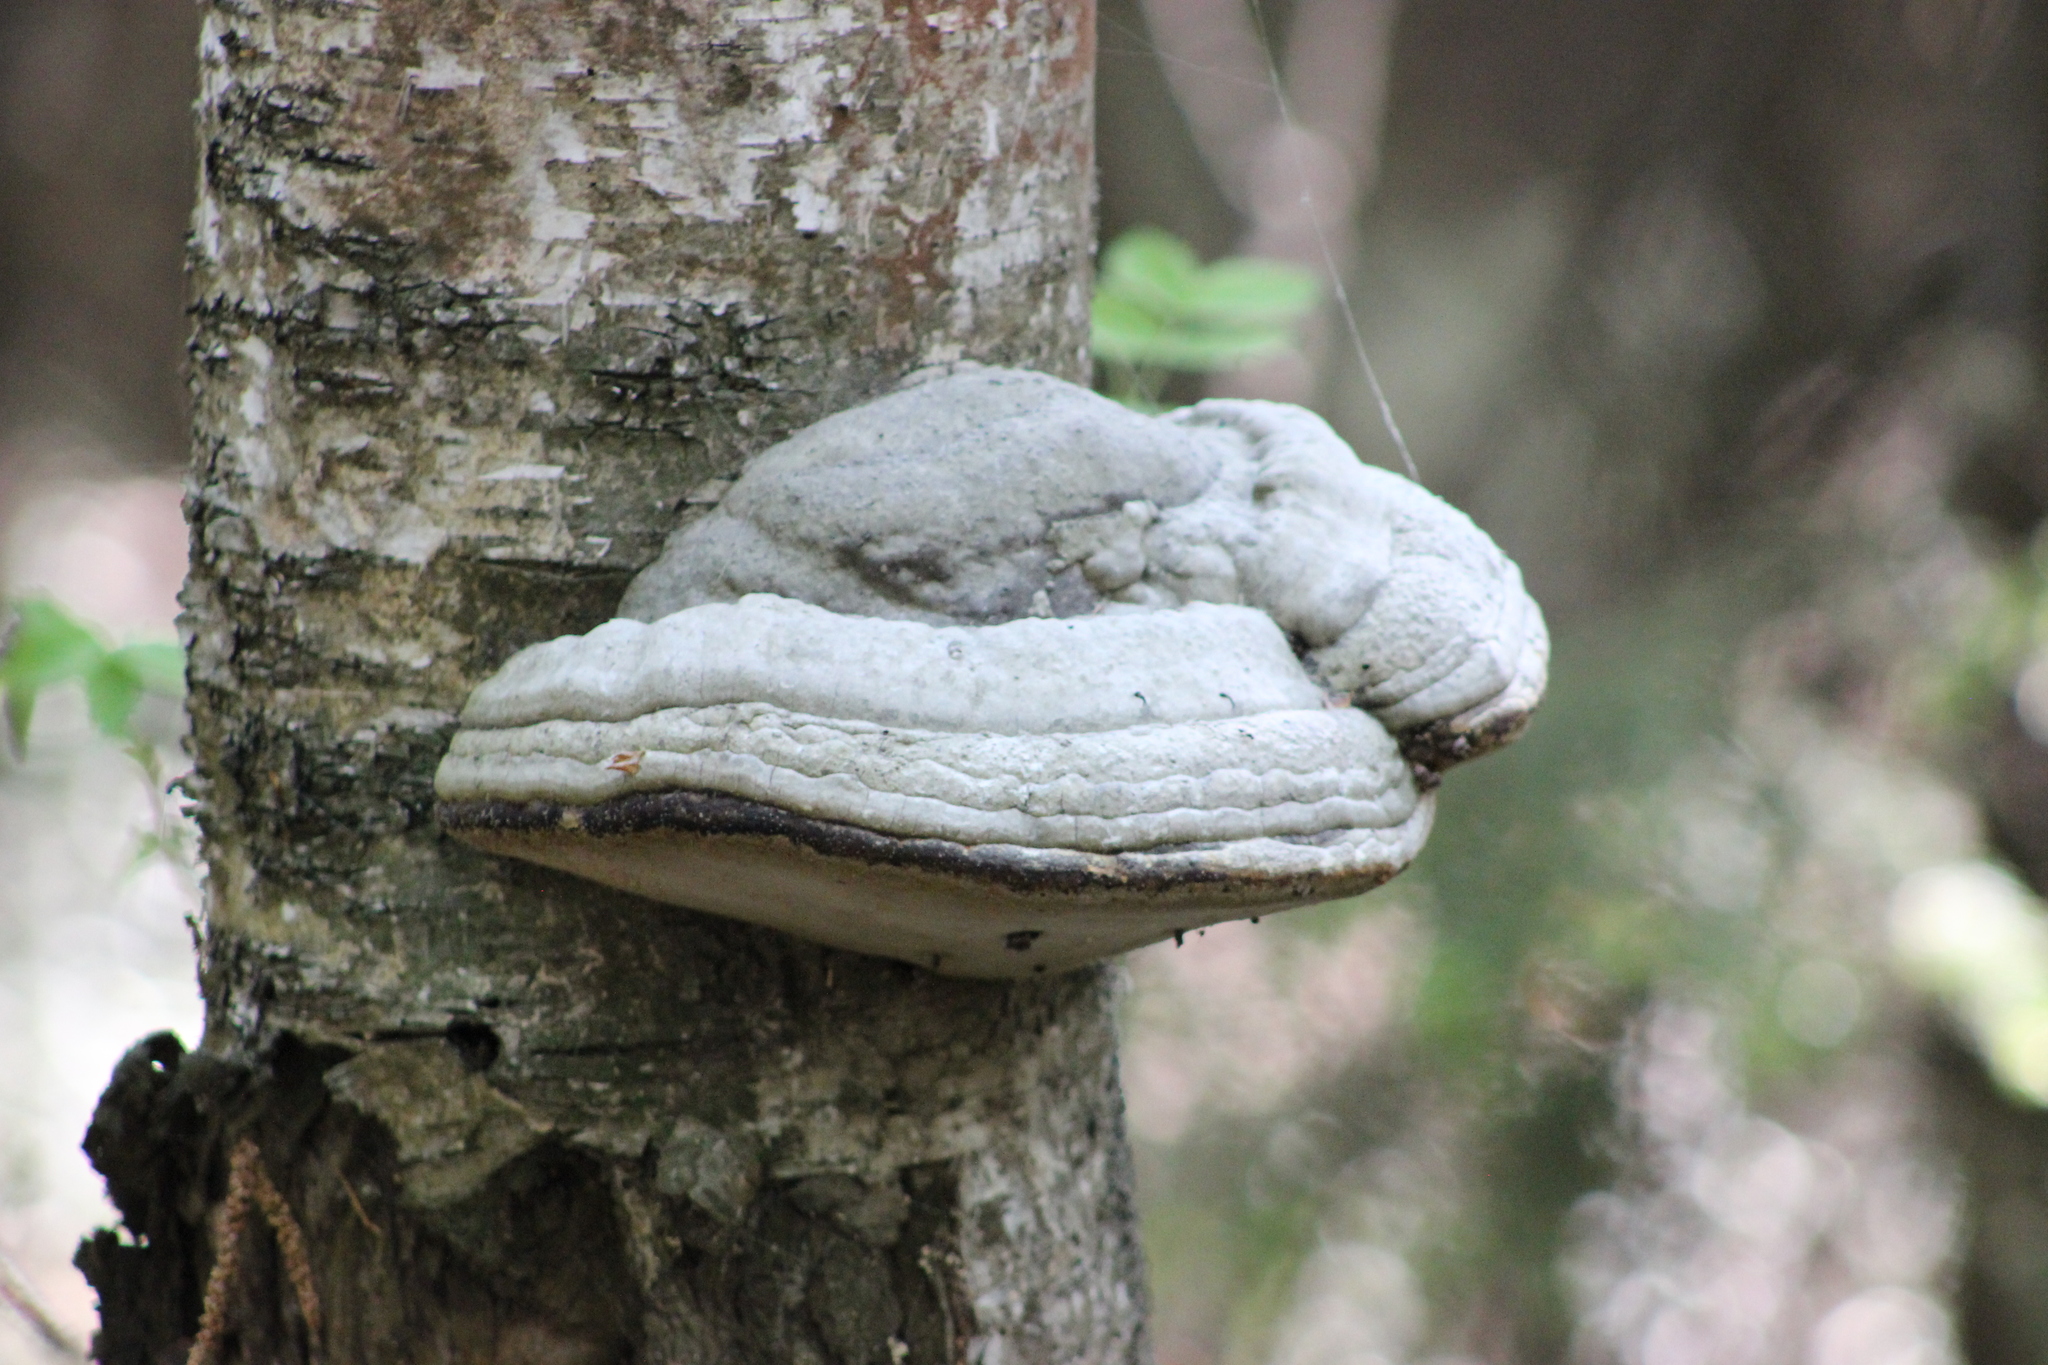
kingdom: Fungi
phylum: Basidiomycota
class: Agaricomycetes
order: Polyporales
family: Polyporaceae
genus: Fomes
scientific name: Fomes fomentarius
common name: Hoof fungus
